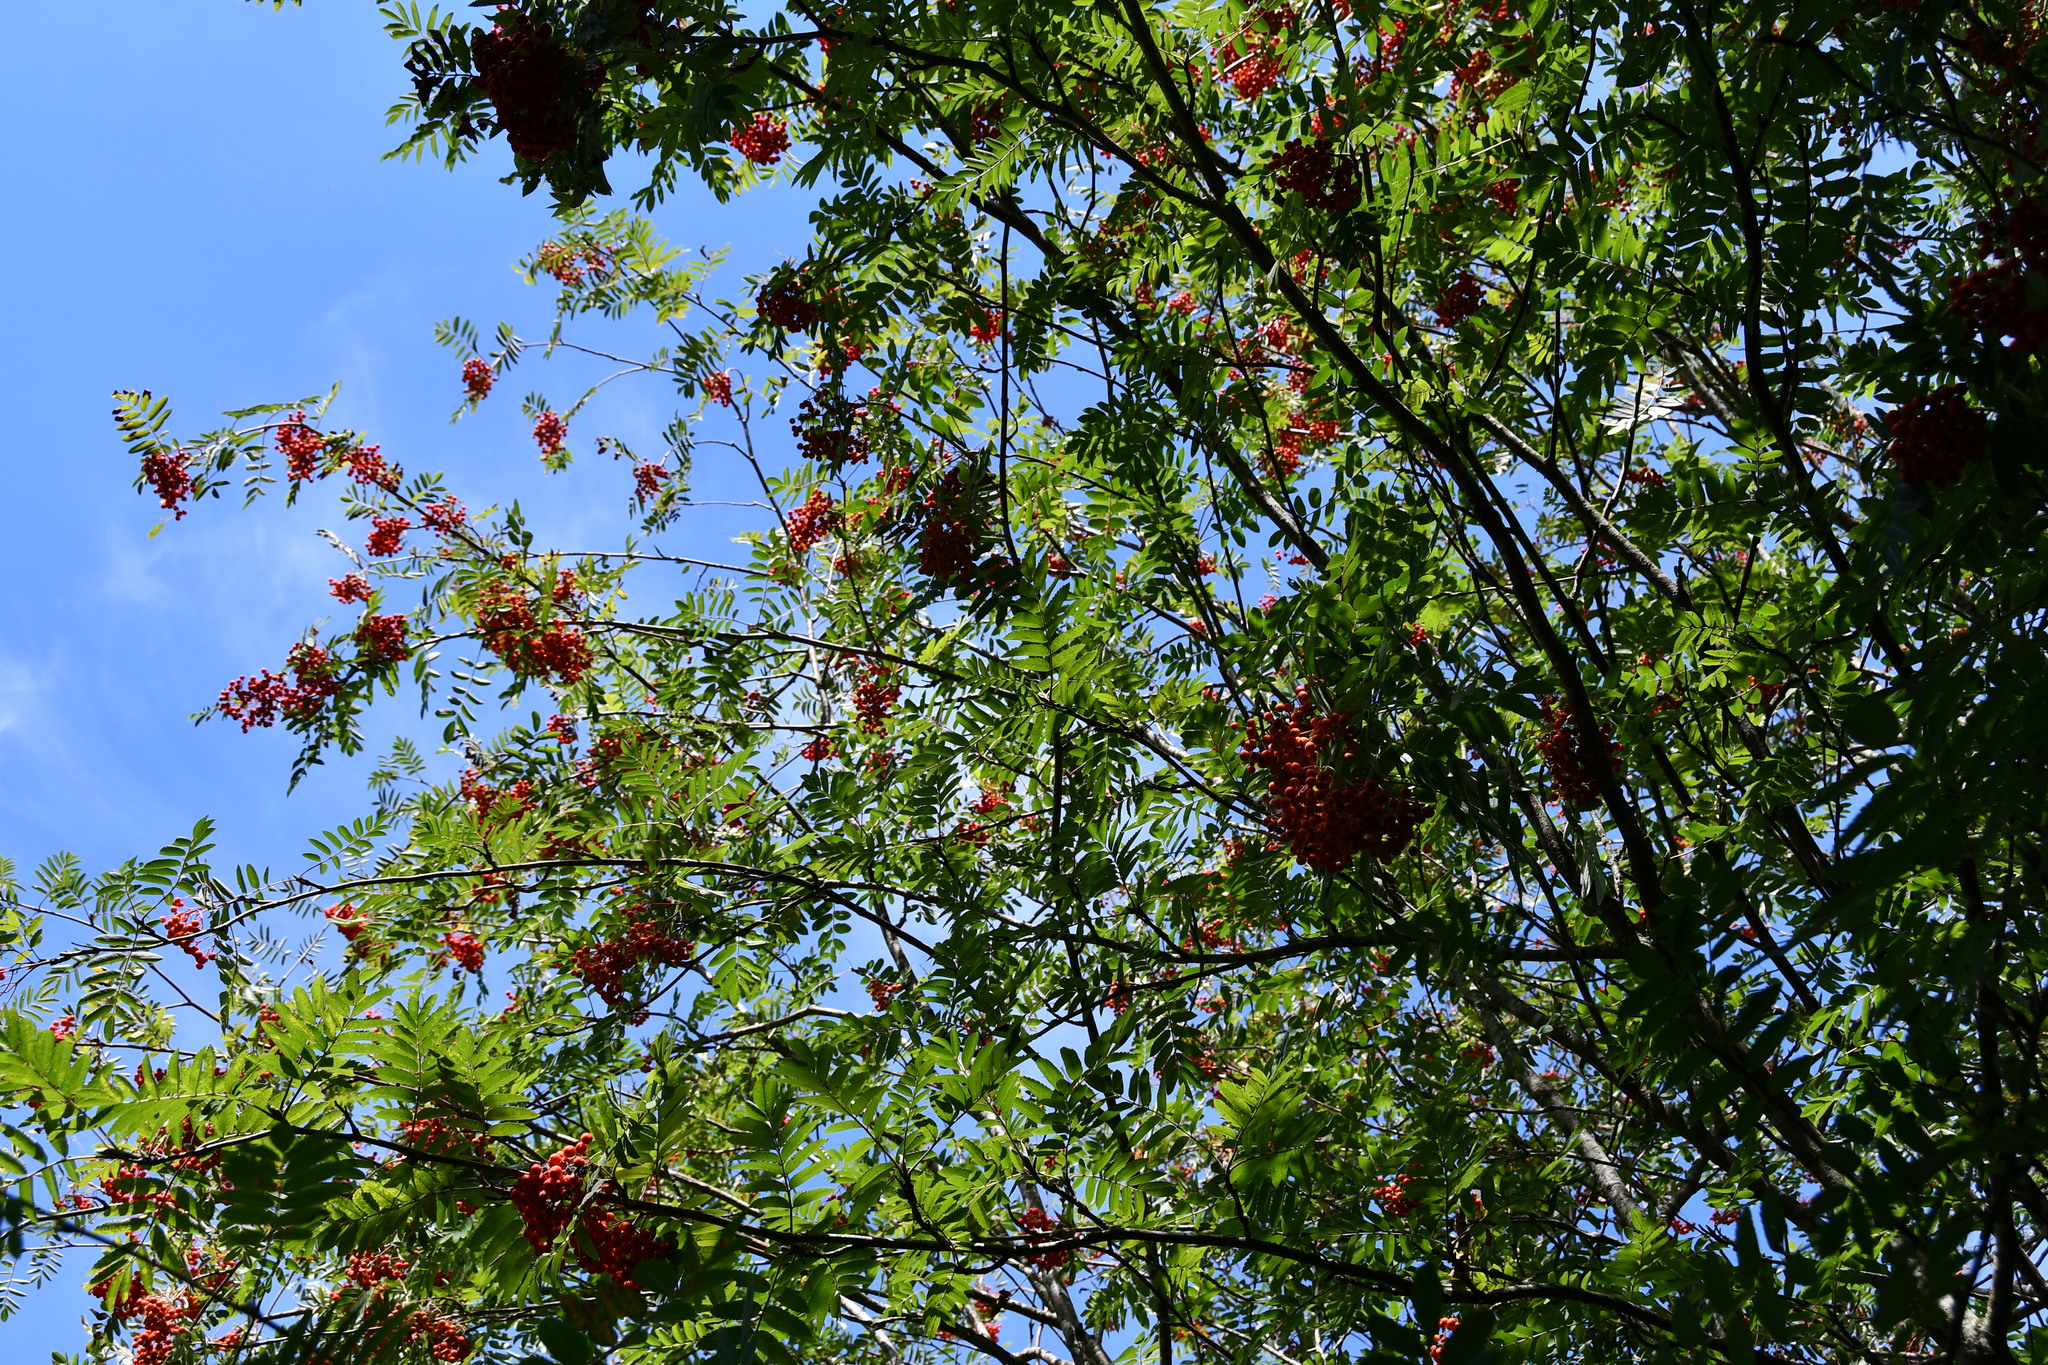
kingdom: Plantae
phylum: Tracheophyta
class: Magnoliopsida
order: Rosales
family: Rosaceae
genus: Sorbus
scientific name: Sorbus aucuparia
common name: Rowan
